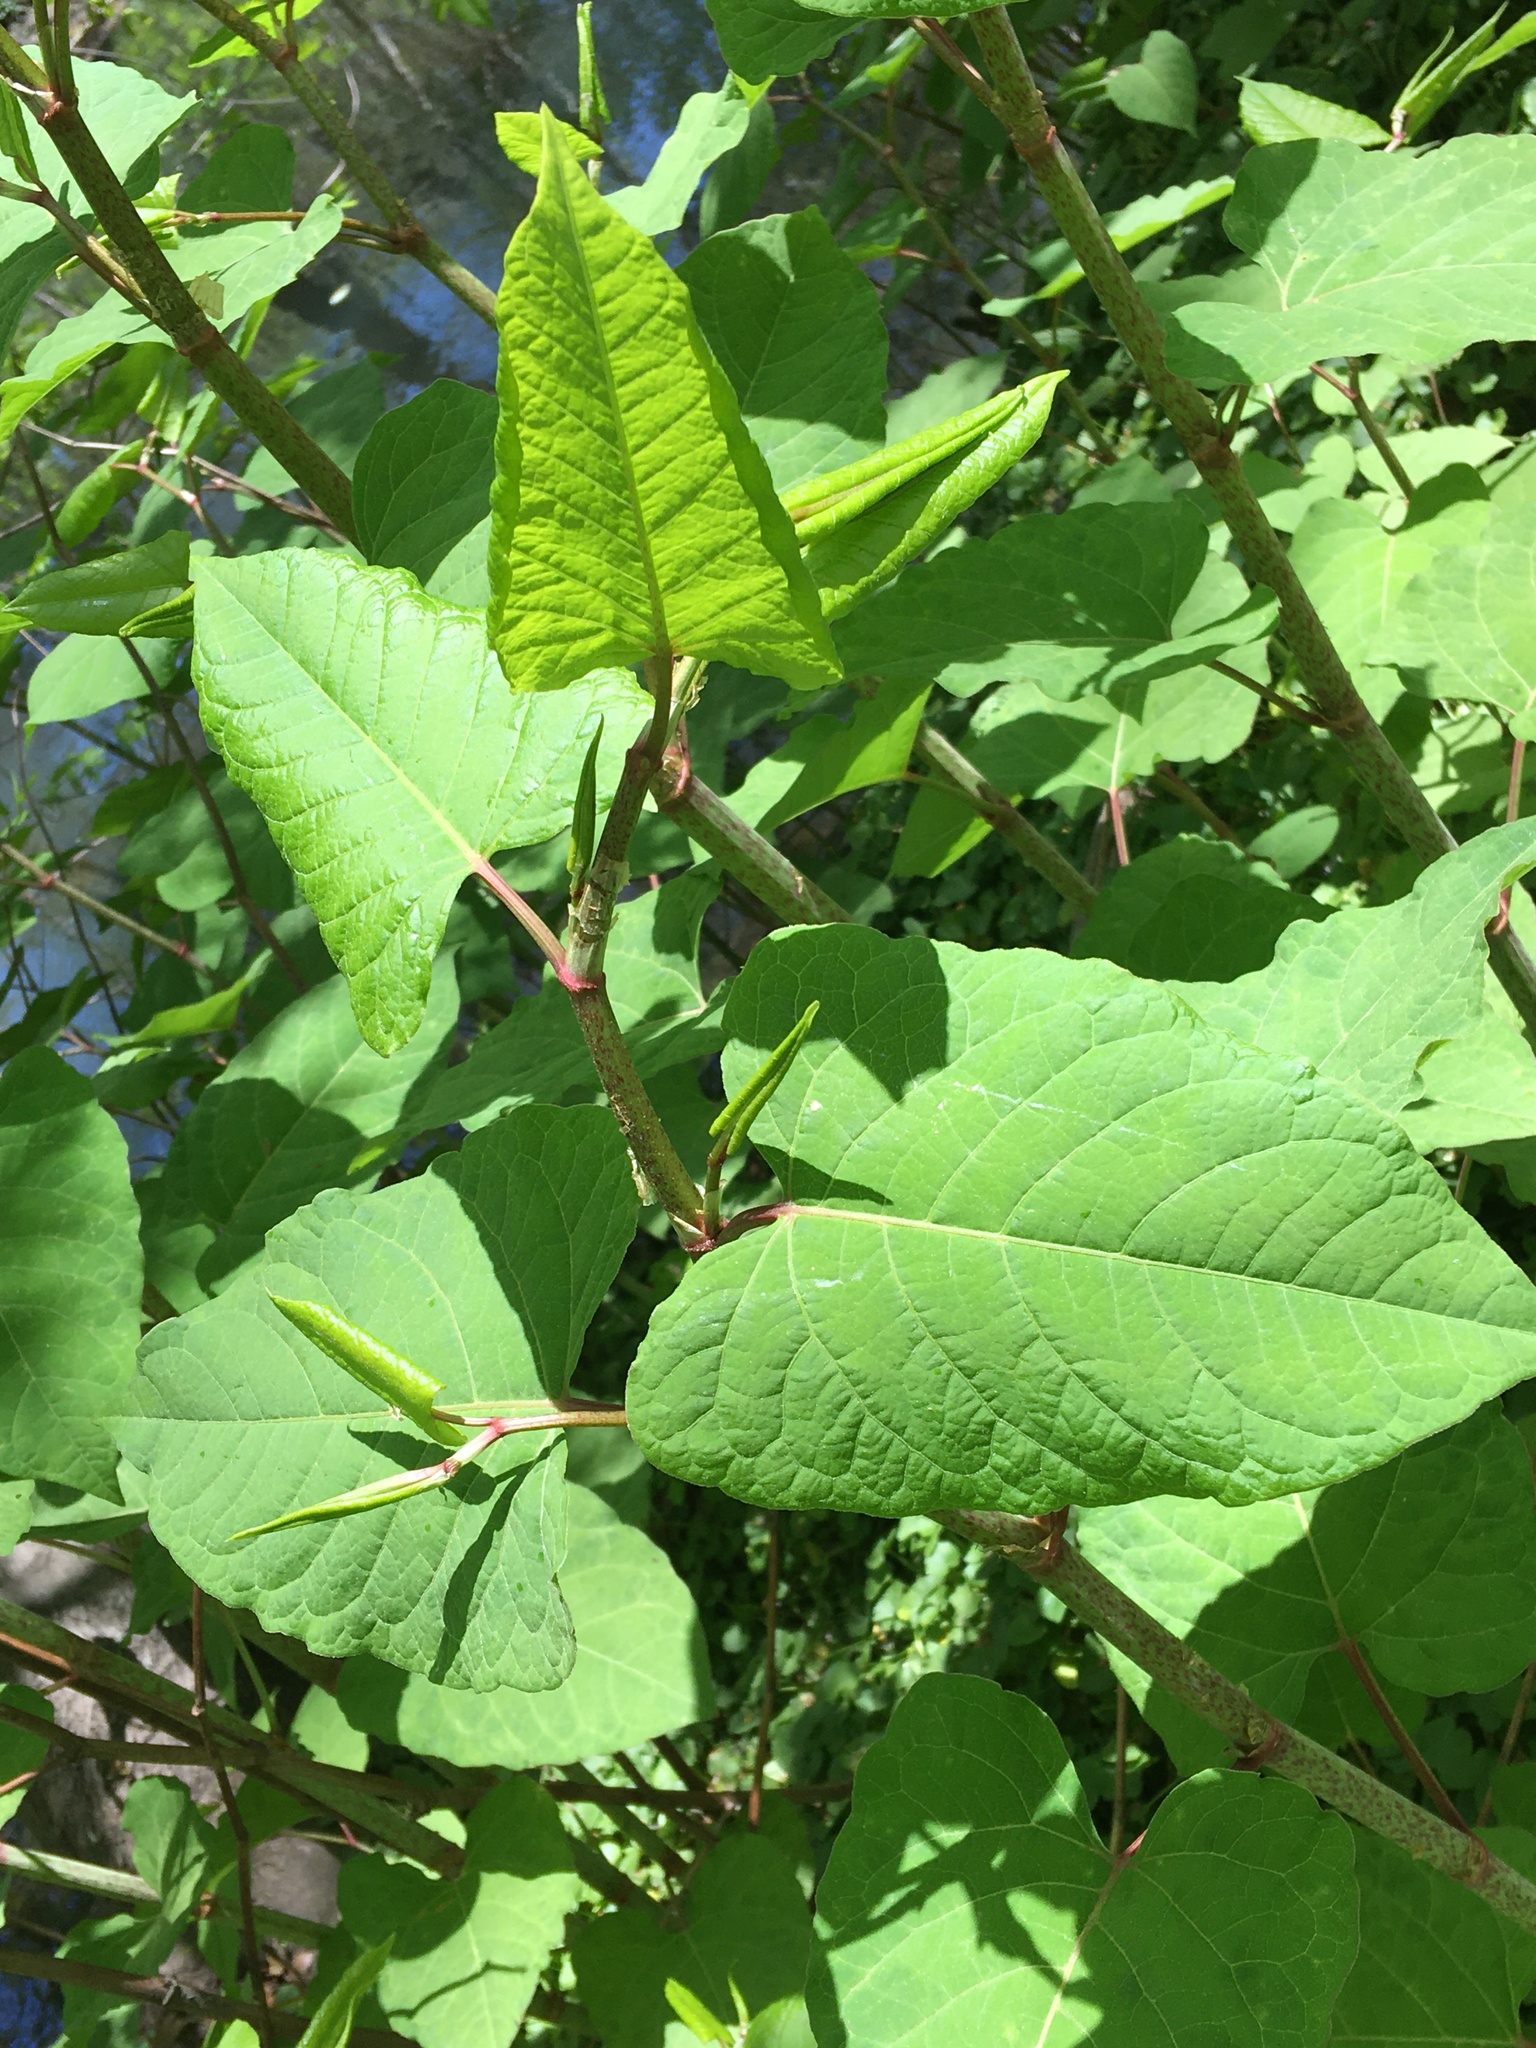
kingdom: Plantae
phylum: Tracheophyta
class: Magnoliopsida
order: Caryophyllales
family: Polygonaceae
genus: Reynoutria
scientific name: Reynoutria japonica
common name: Japanese knotweed
